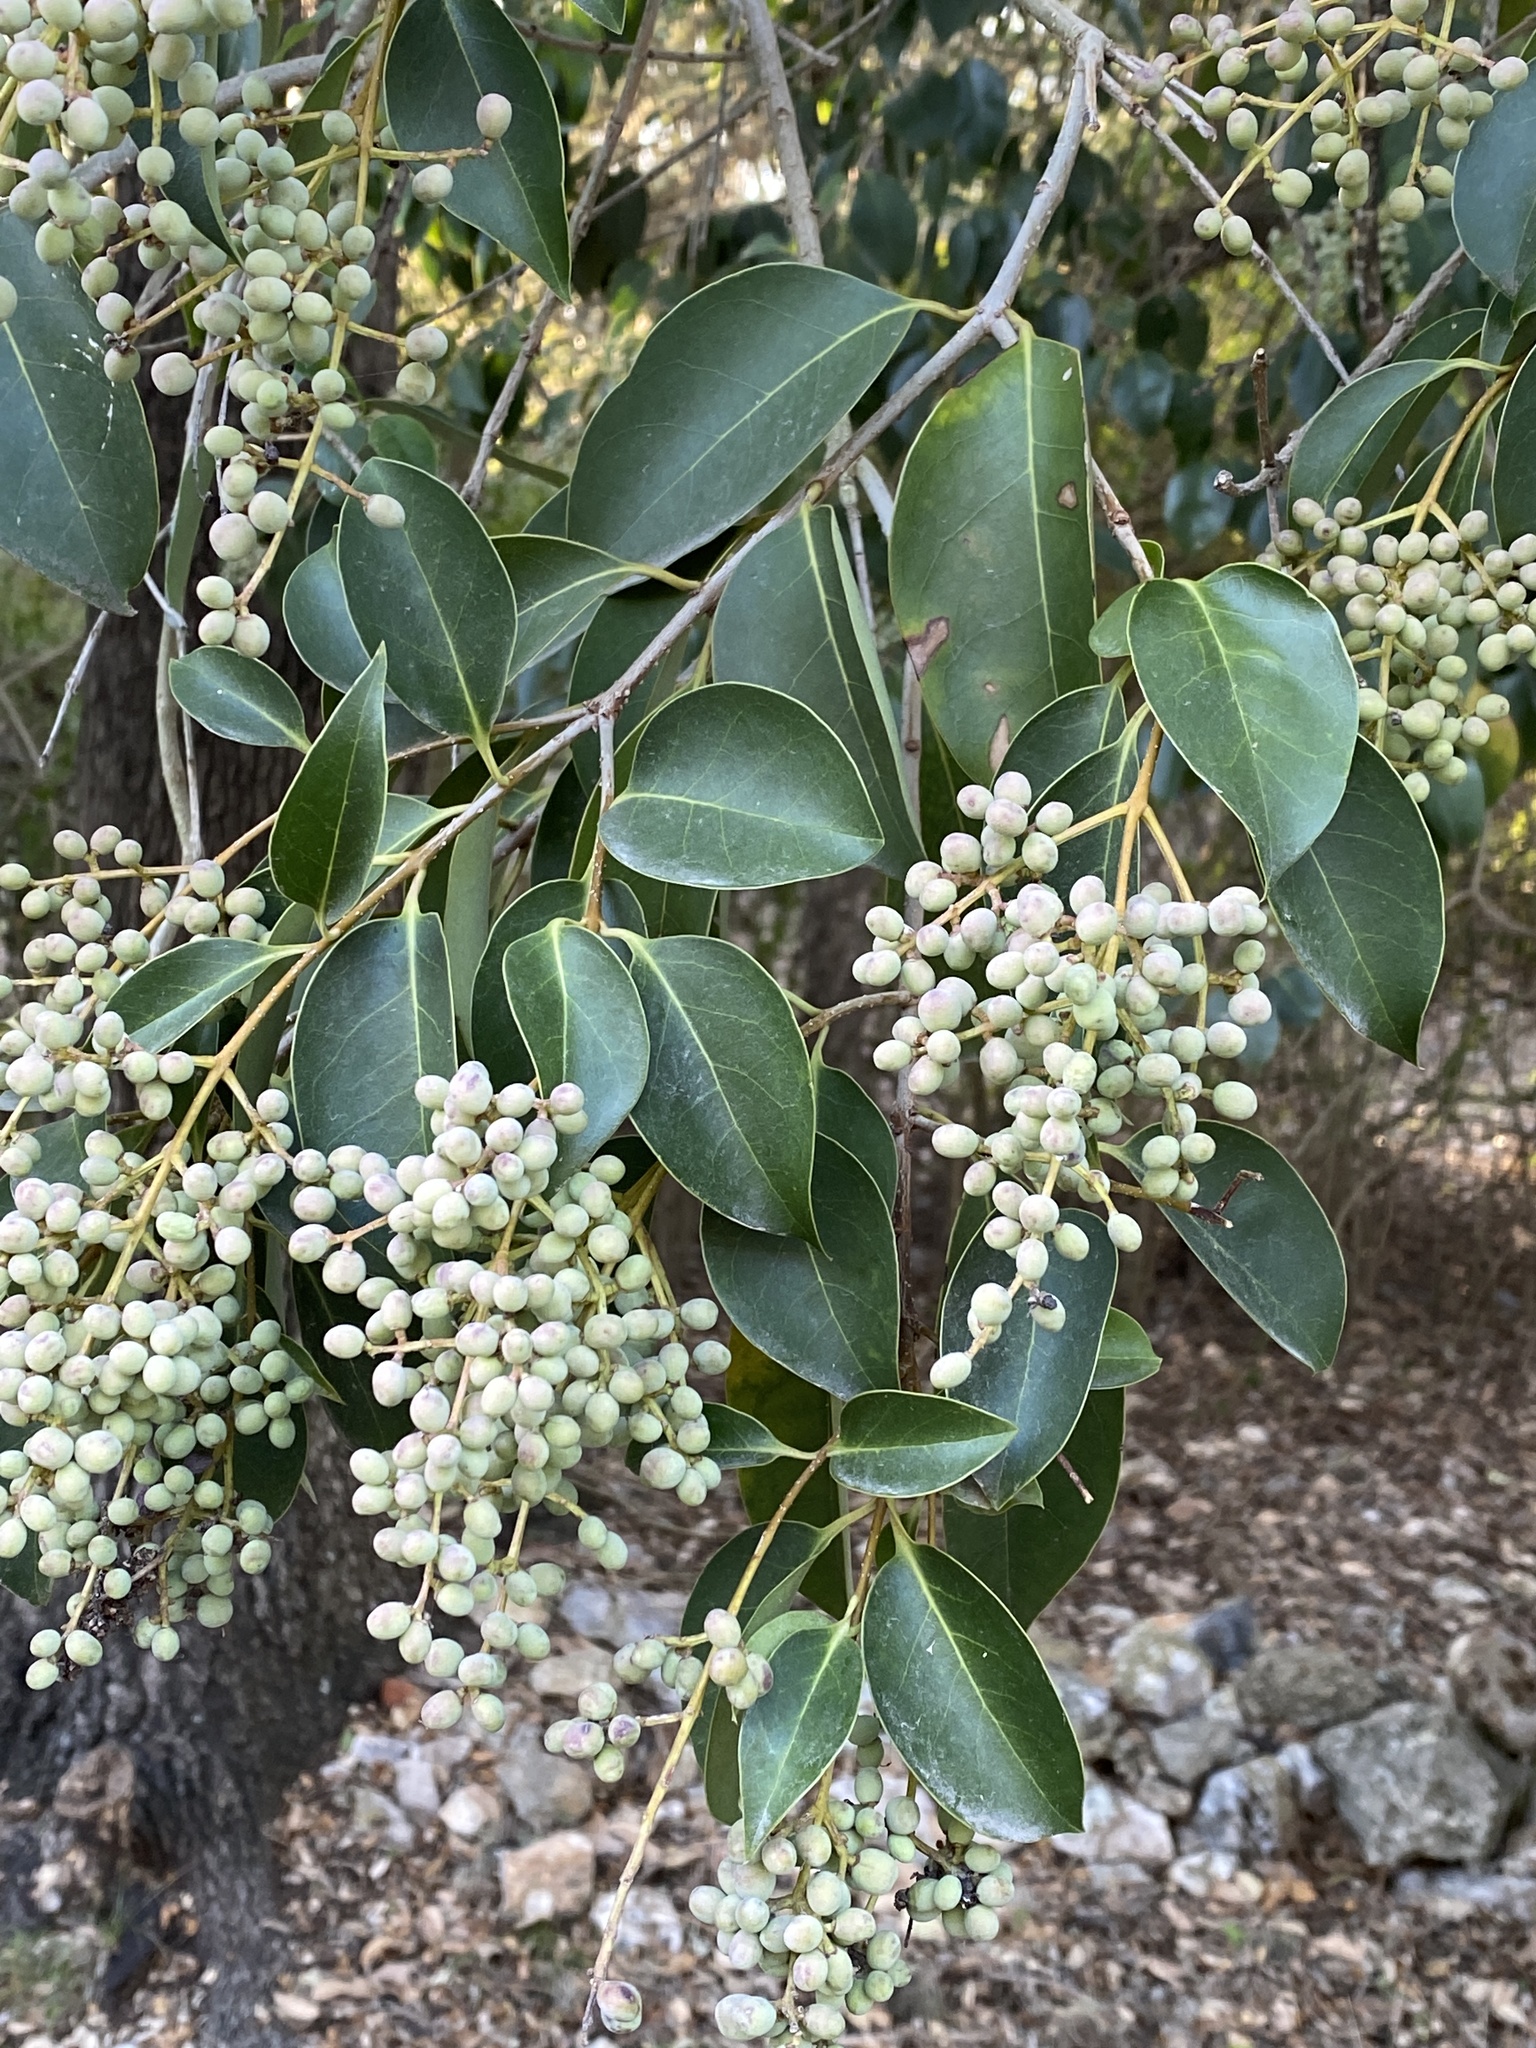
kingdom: Plantae
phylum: Tracheophyta
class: Magnoliopsida
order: Lamiales
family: Oleaceae
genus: Ligustrum
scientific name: Ligustrum lucidum
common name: Glossy privet
